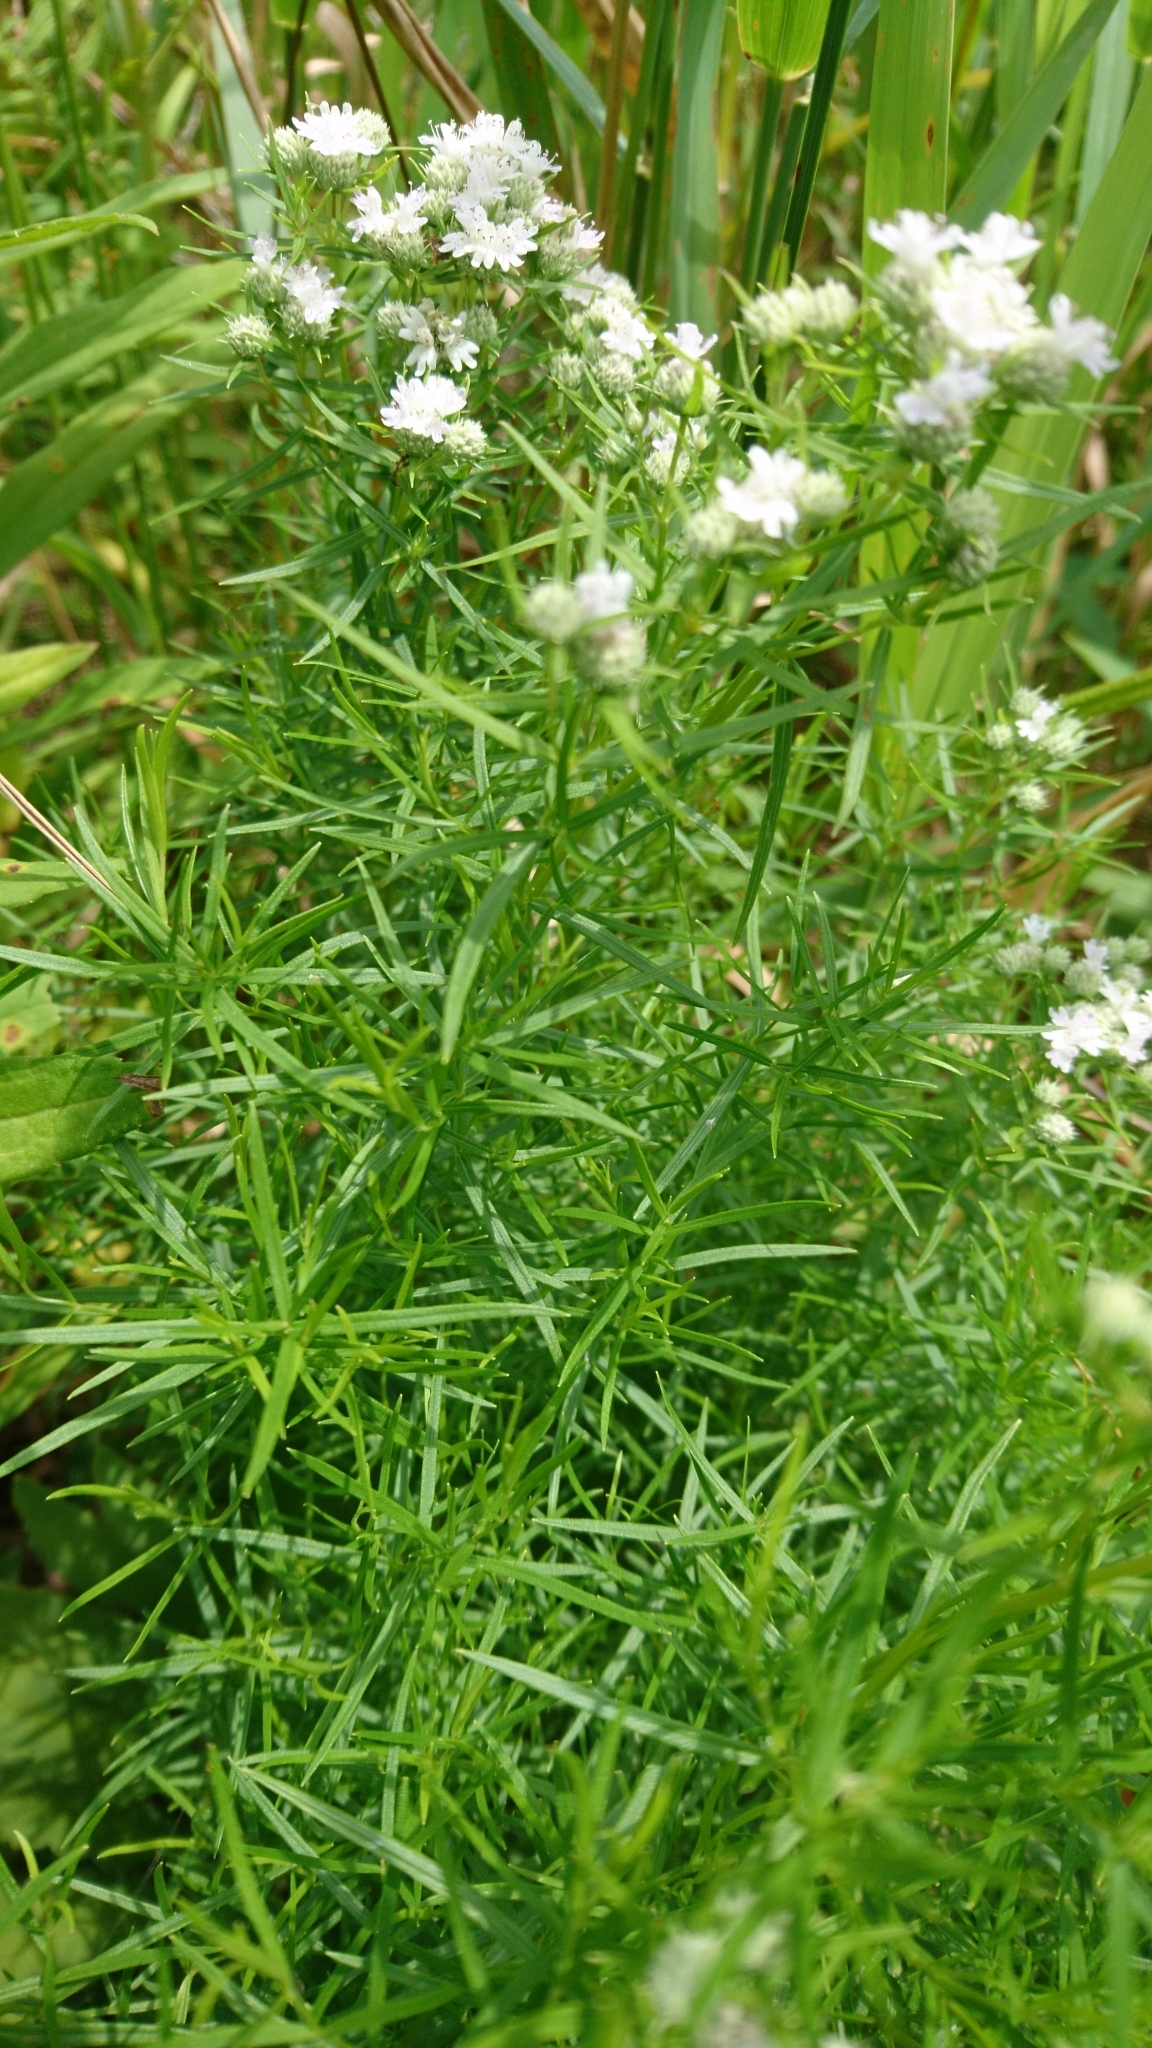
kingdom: Plantae
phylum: Tracheophyta
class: Magnoliopsida
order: Lamiales
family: Lamiaceae
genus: Pycnanthemum
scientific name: Pycnanthemum tenuifolium
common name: Narrow-leaf mountain-mint
